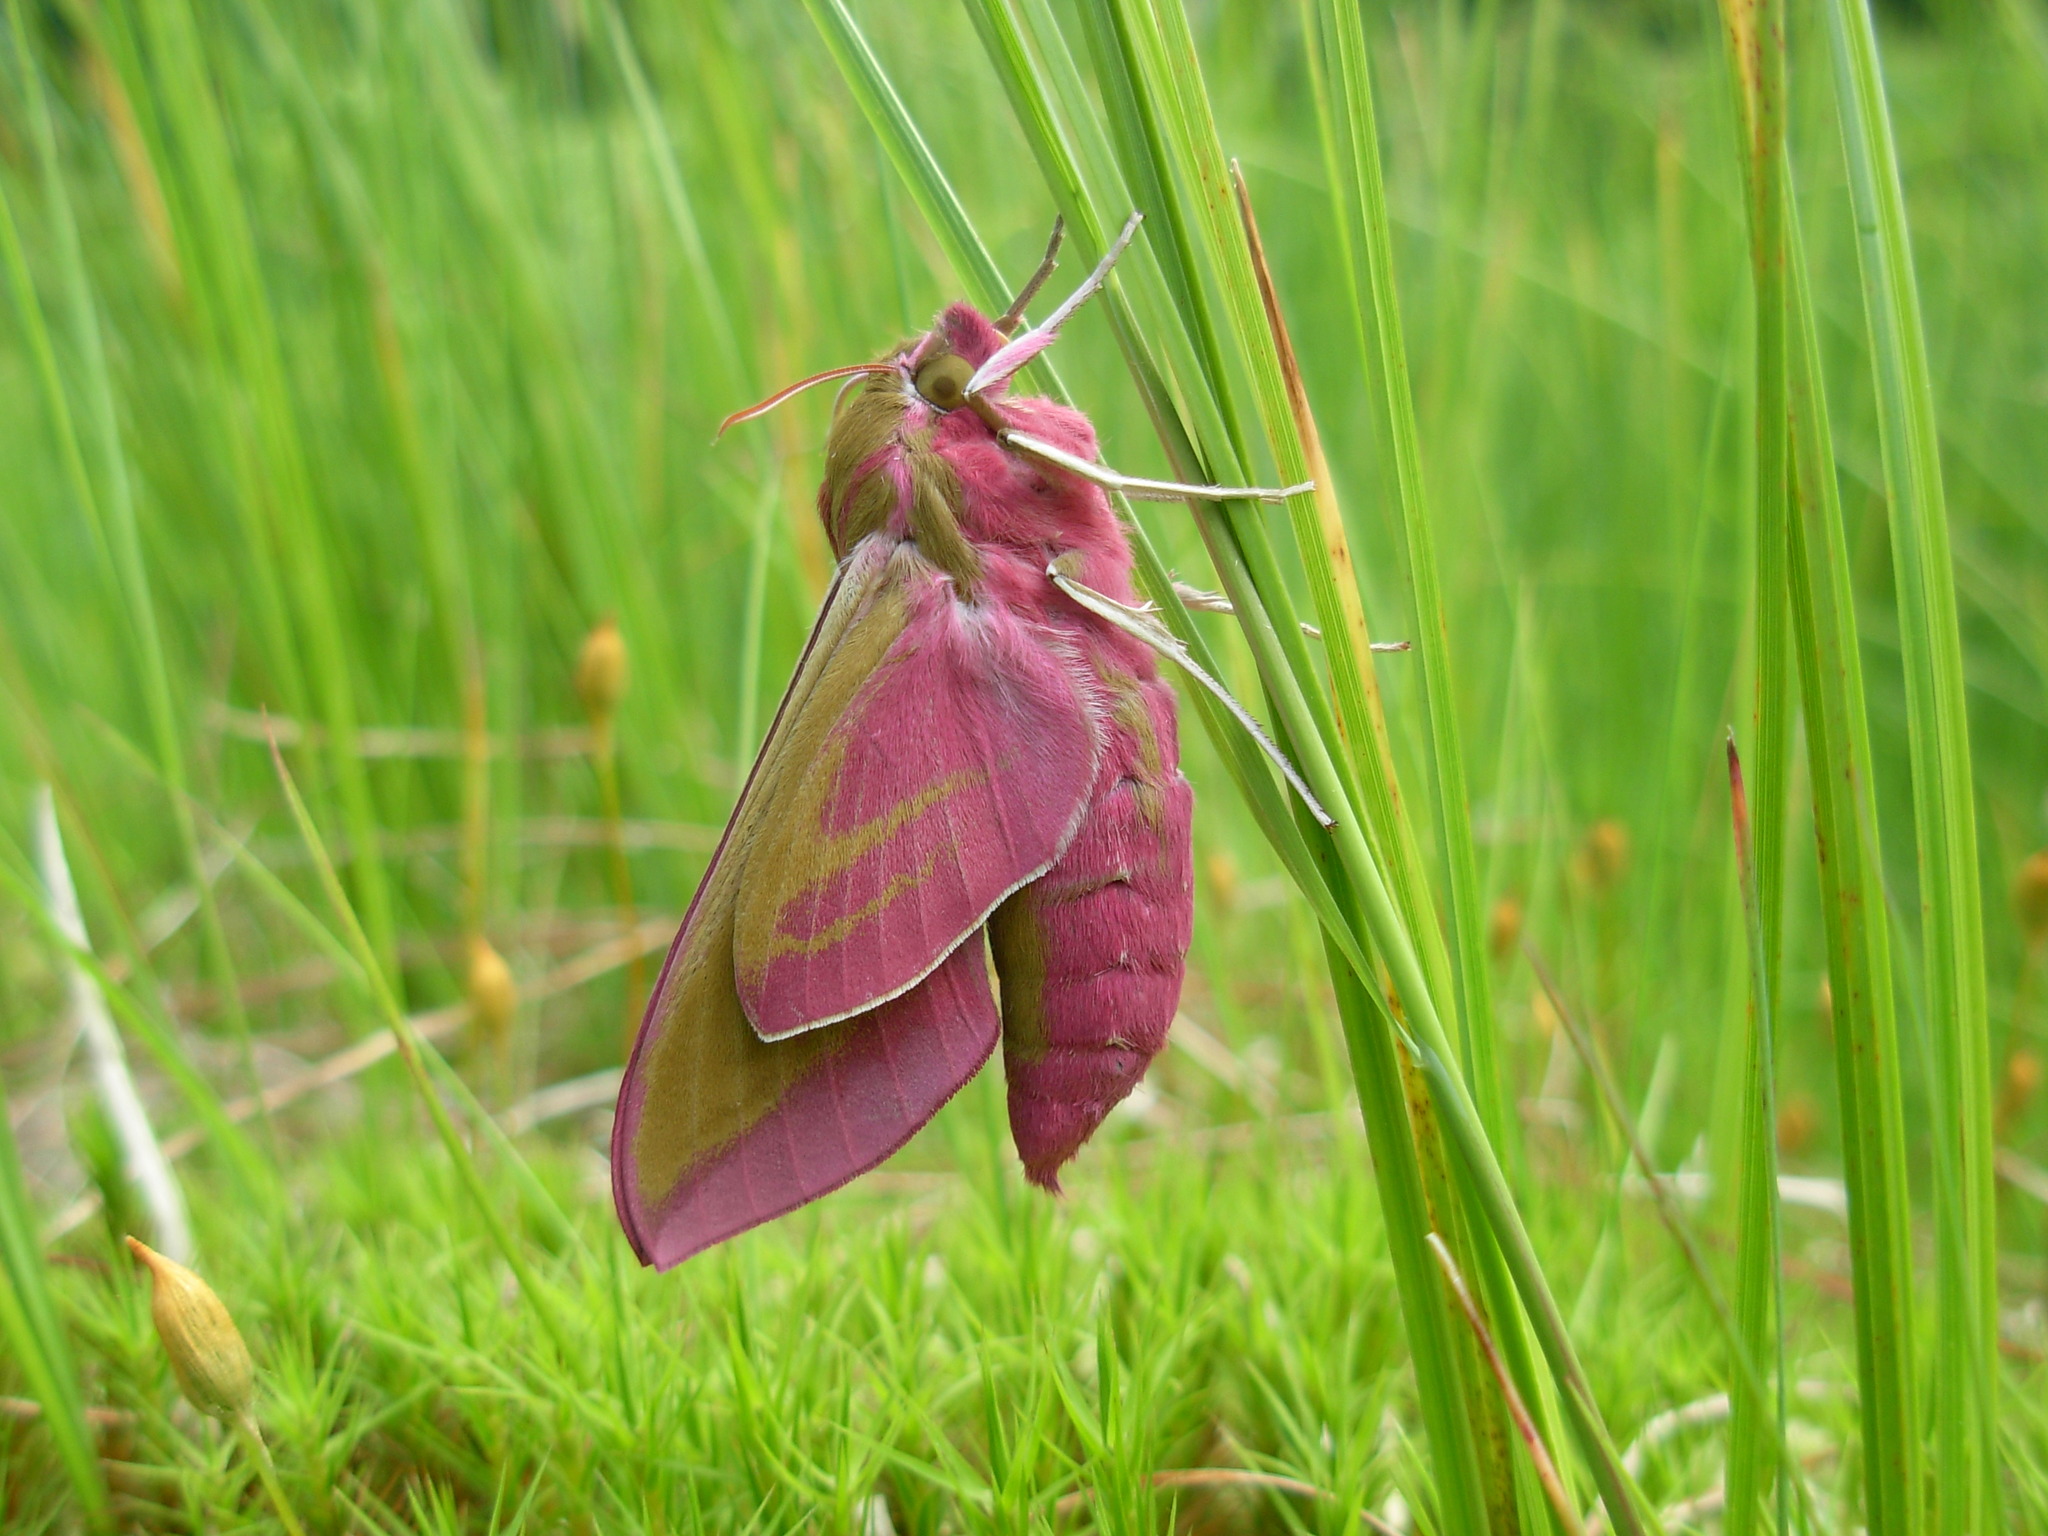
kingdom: Animalia
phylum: Arthropoda
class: Insecta
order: Lepidoptera
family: Sphingidae
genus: Deilephila
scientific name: Deilephila elpenor
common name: Elephant hawk-moth
